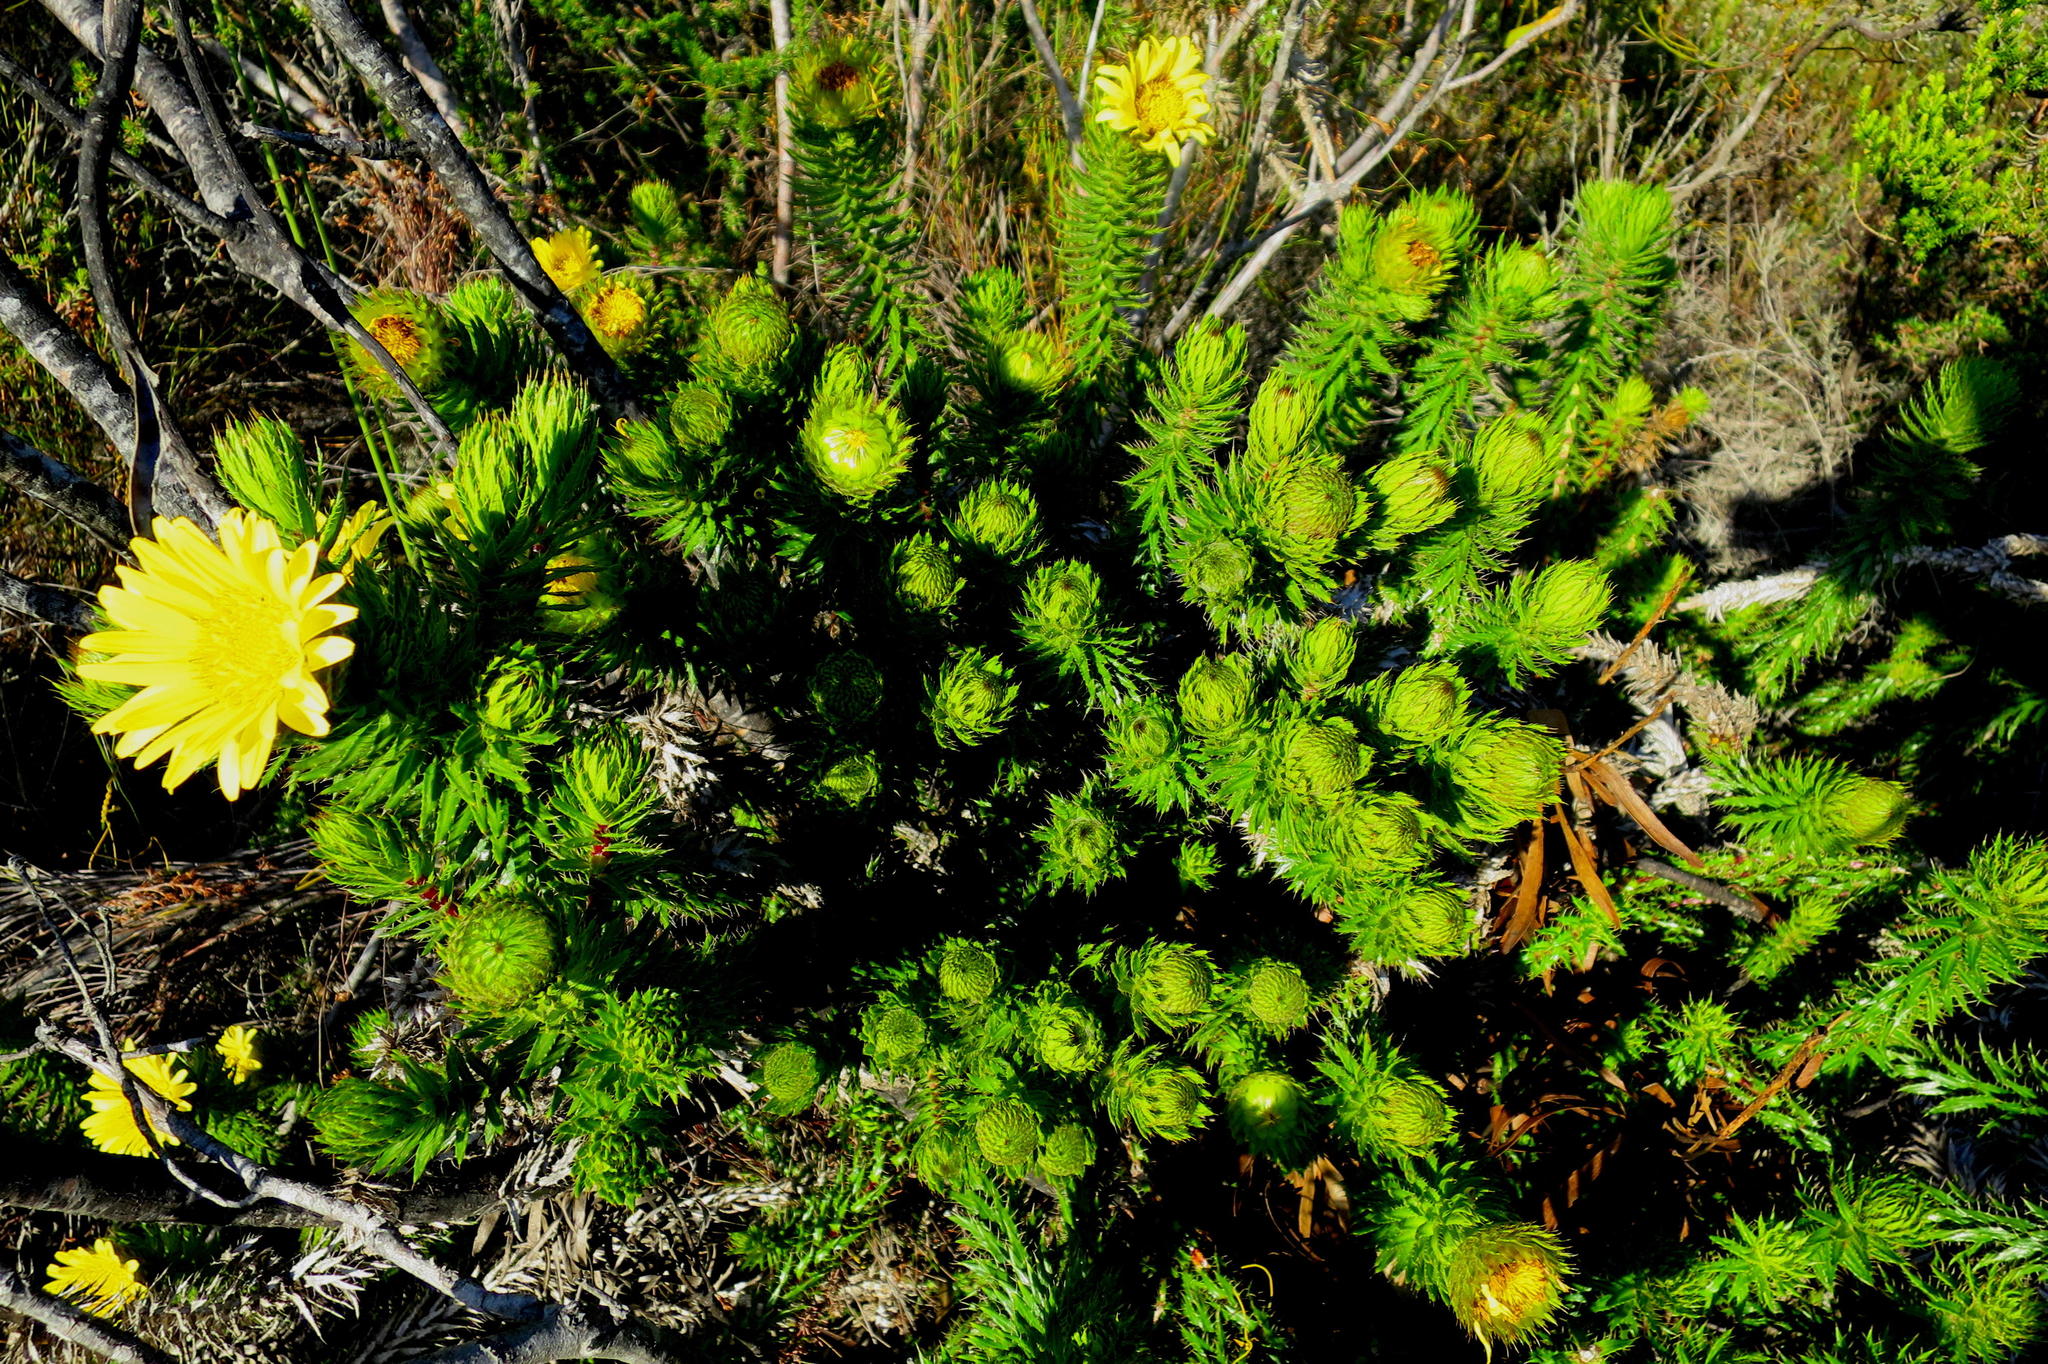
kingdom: Plantae
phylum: Tracheophyta
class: Magnoliopsida
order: Asterales
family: Asteraceae
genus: Cullumia
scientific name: Cullumia carlinoides
